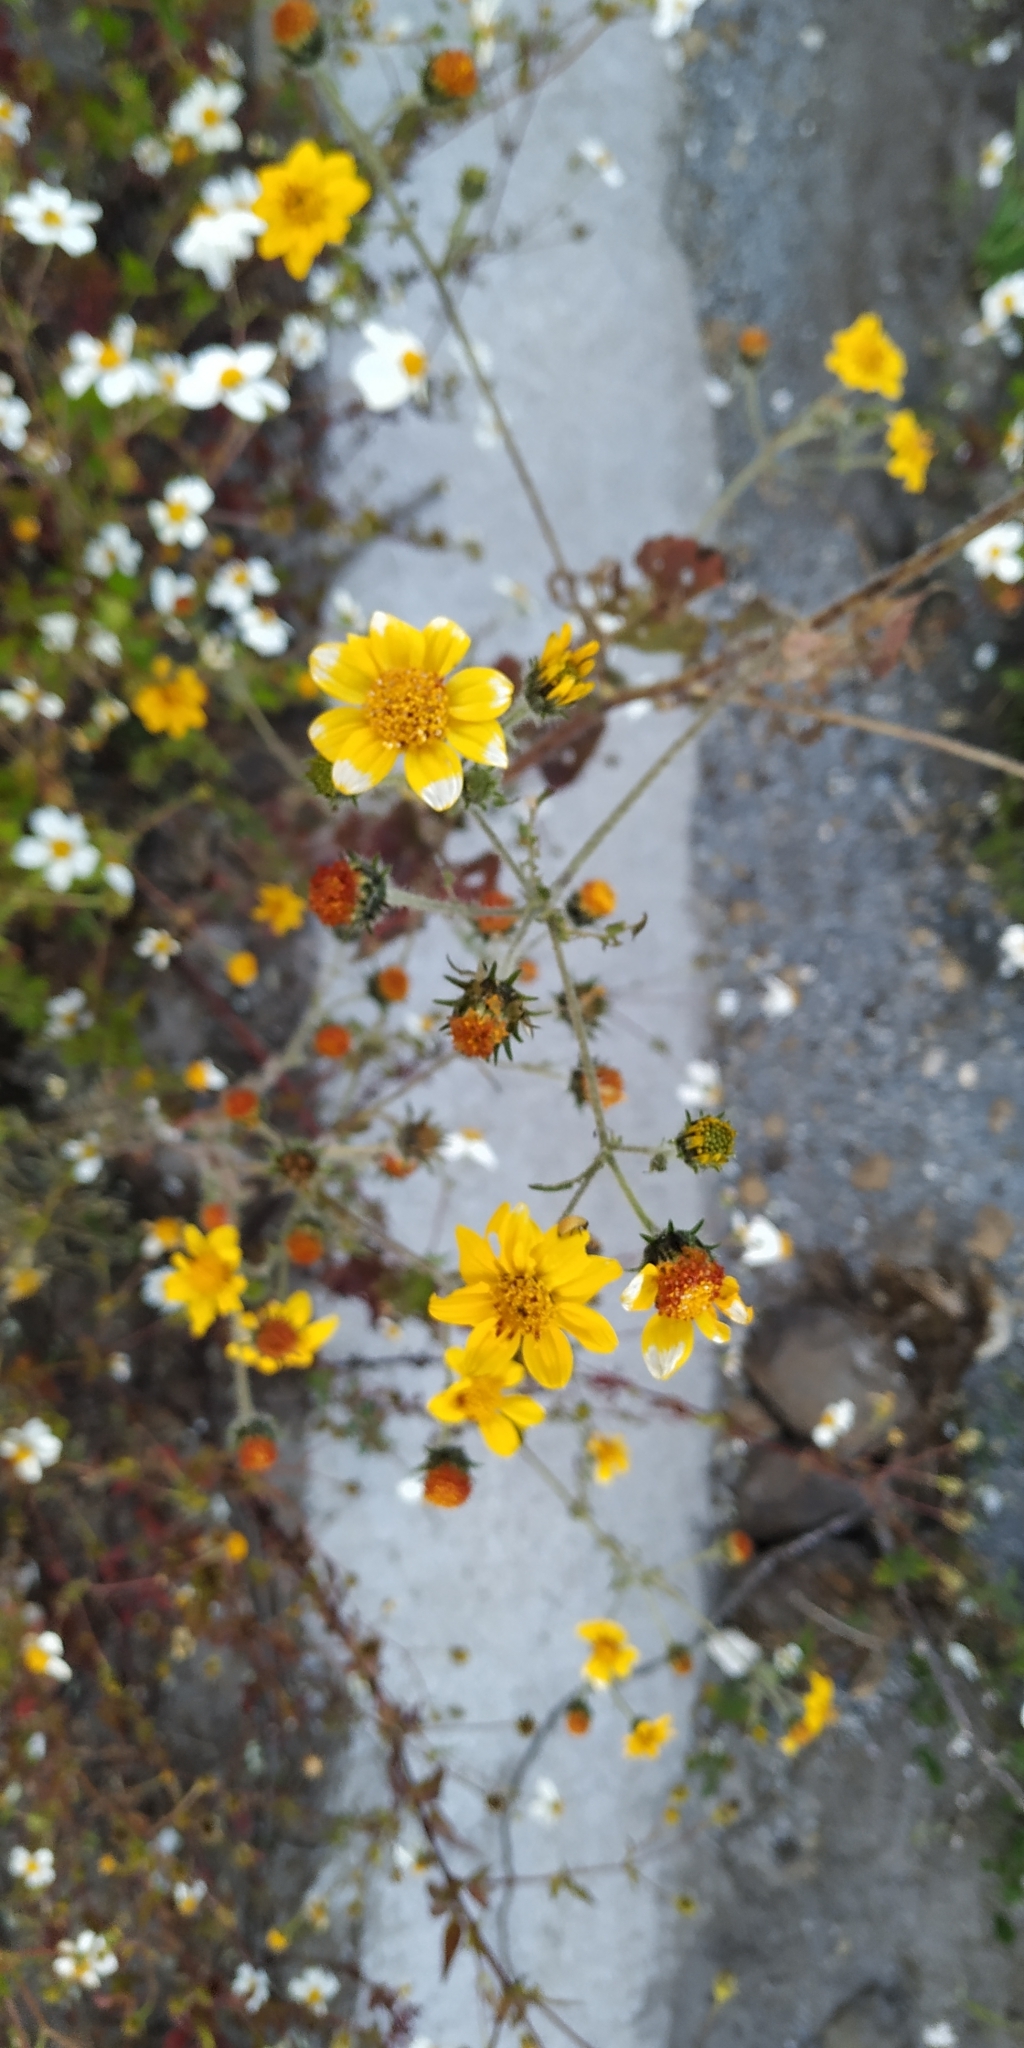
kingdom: Plantae
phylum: Tracheophyta
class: Magnoliopsida
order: Asterales
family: Asteraceae
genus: Simsia
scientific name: Simsia amplexicaulis
